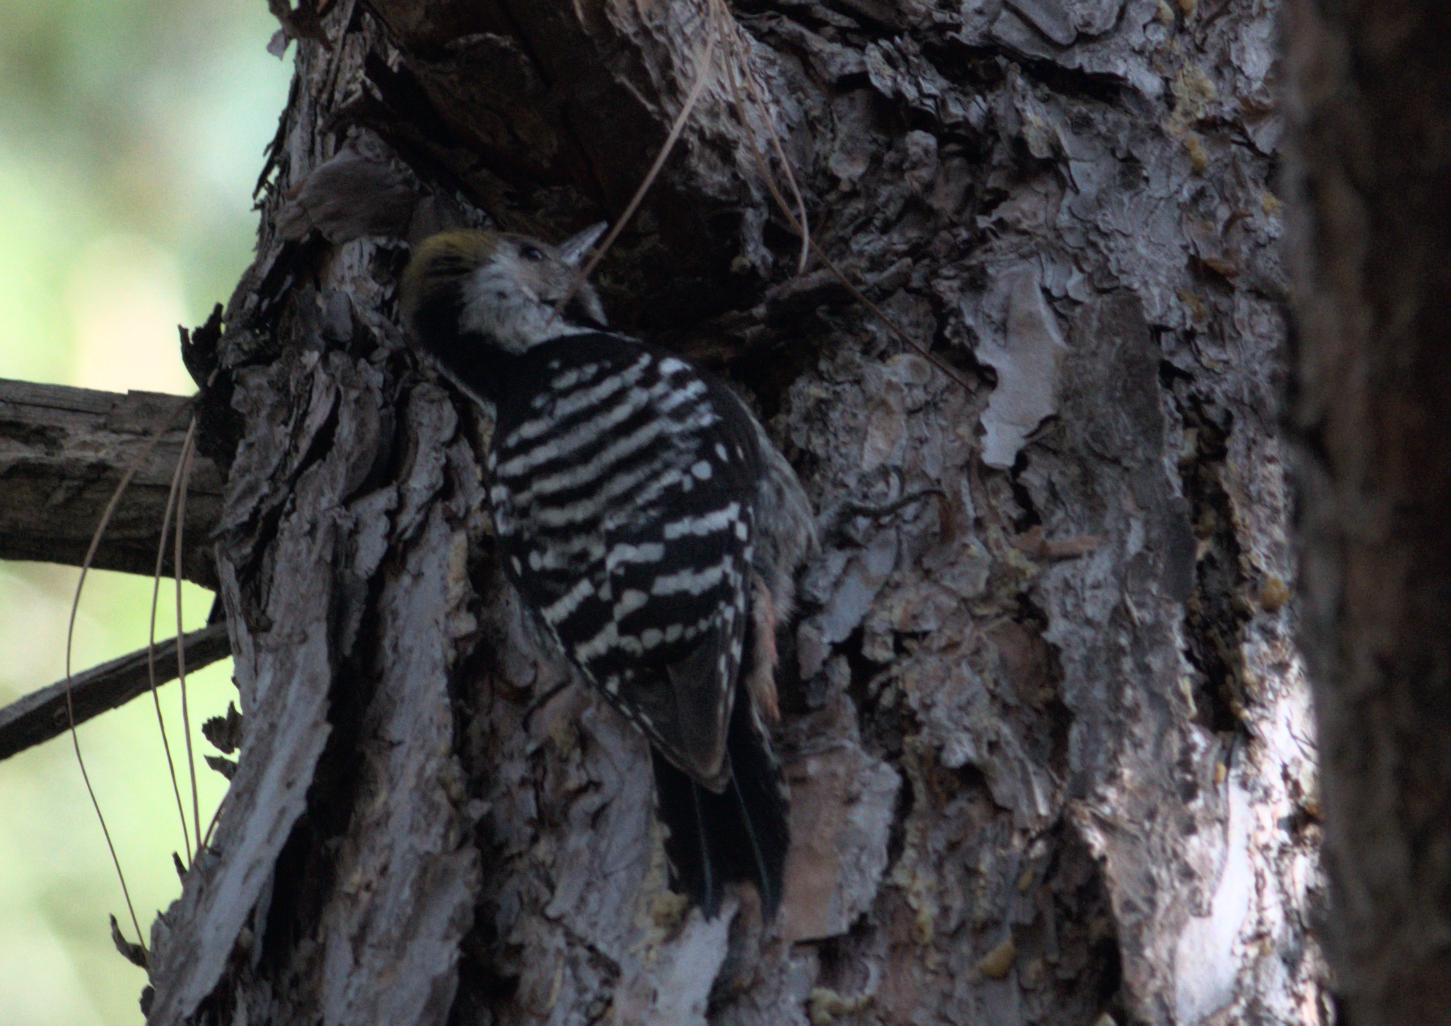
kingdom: Animalia
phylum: Chordata
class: Aves
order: Piciformes
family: Picidae
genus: Dendrocoptes
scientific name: Dendrocoptes auriceps
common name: Brown-fronted woodpecker
